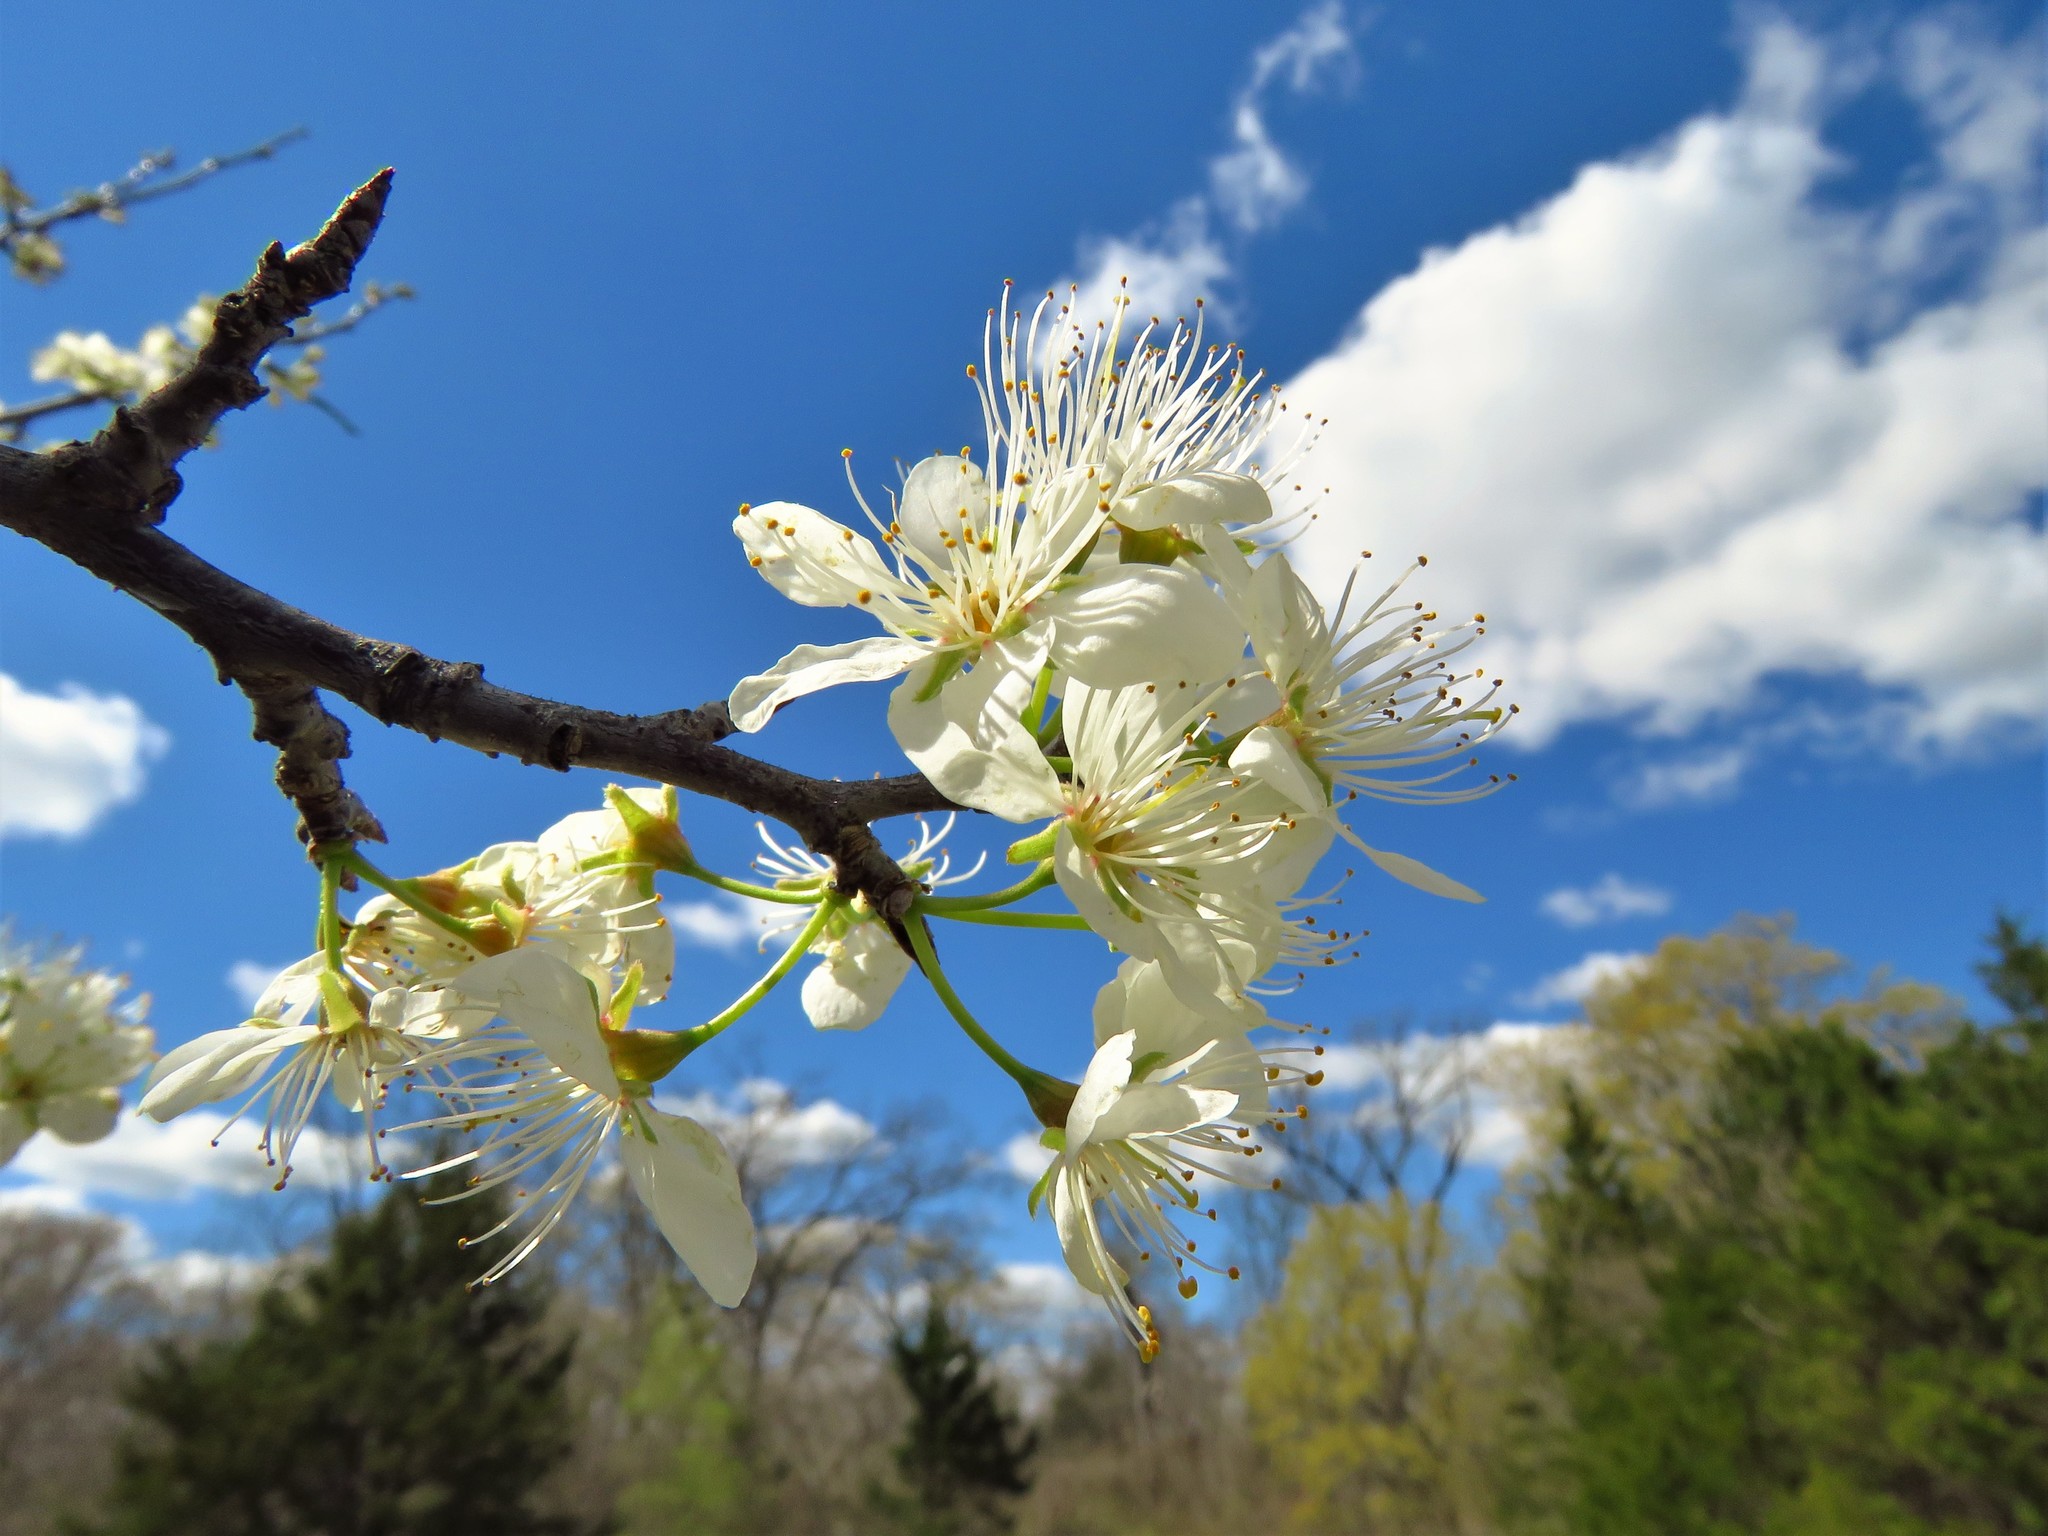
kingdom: Plantae
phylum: Tracheophyta
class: Magnoliopsida
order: Rosales
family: Rosaceae
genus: Prunus
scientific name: Prunus mexicana
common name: Mexican plum
